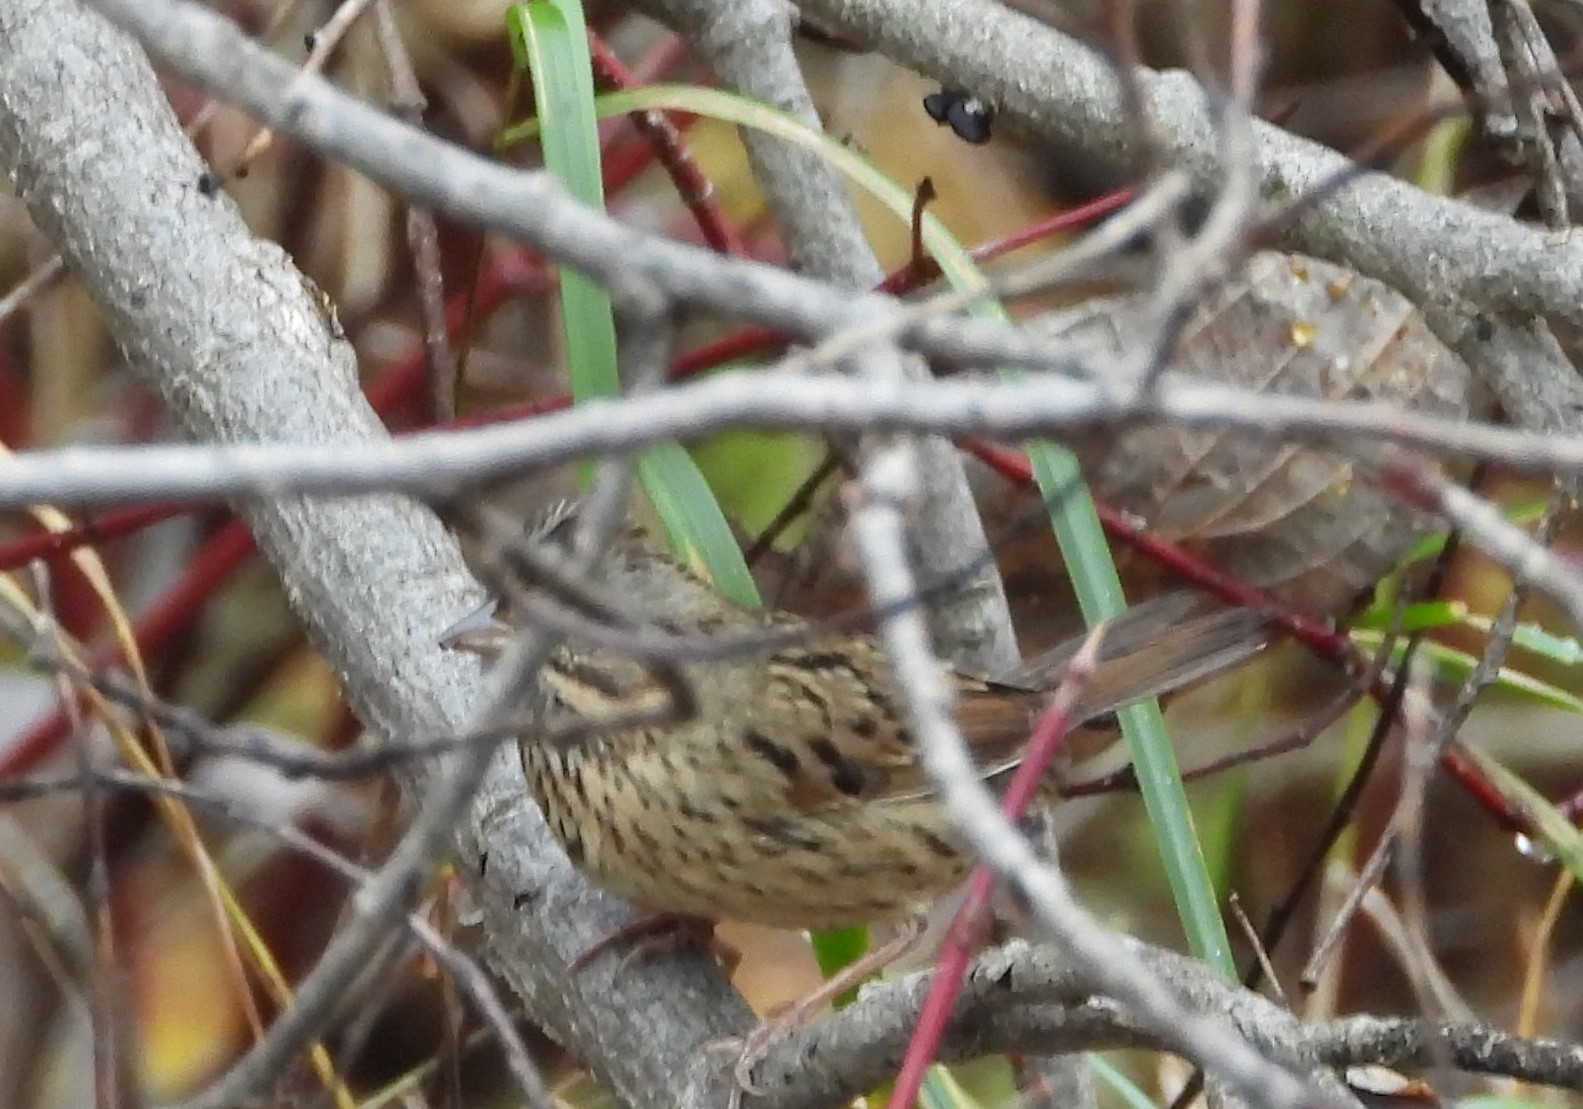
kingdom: Animalia
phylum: Chordata
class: Aves
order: Passeriformes
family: Passerellidae
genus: Melospiza
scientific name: Melospiza lincolnii
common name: Lincoln's sparrow
